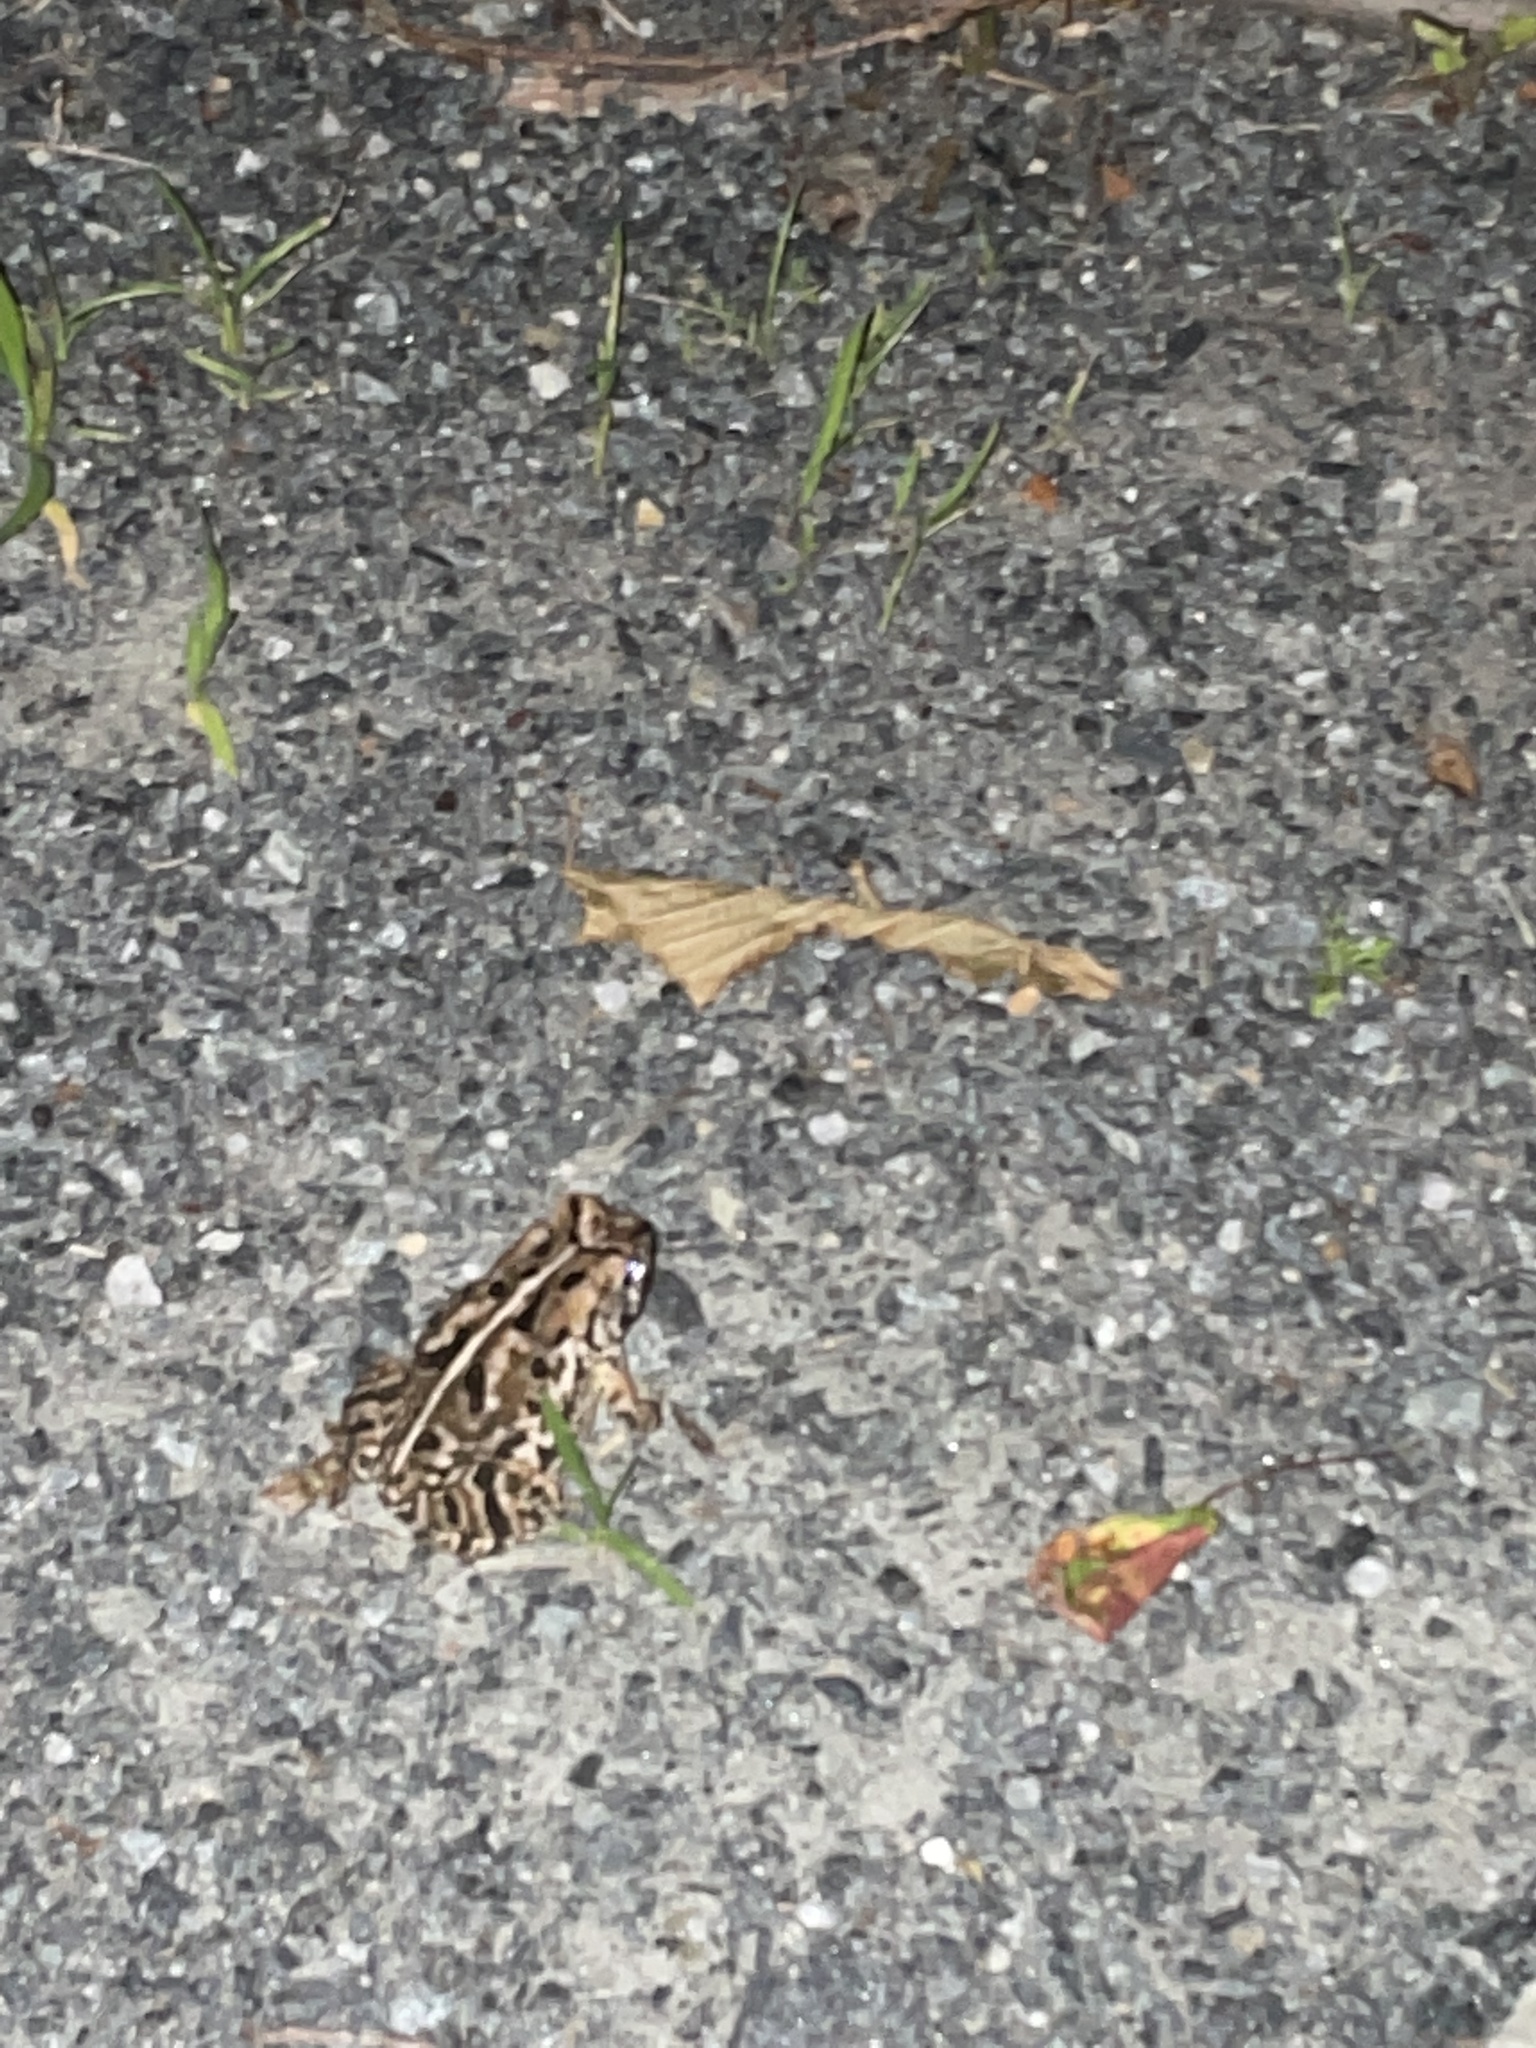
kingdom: Animalia
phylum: Chordata
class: Amphibia
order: Anura
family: Bufonidae
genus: Anaxyrus
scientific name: Anaxyrus fowleri
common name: Fowler's toad
